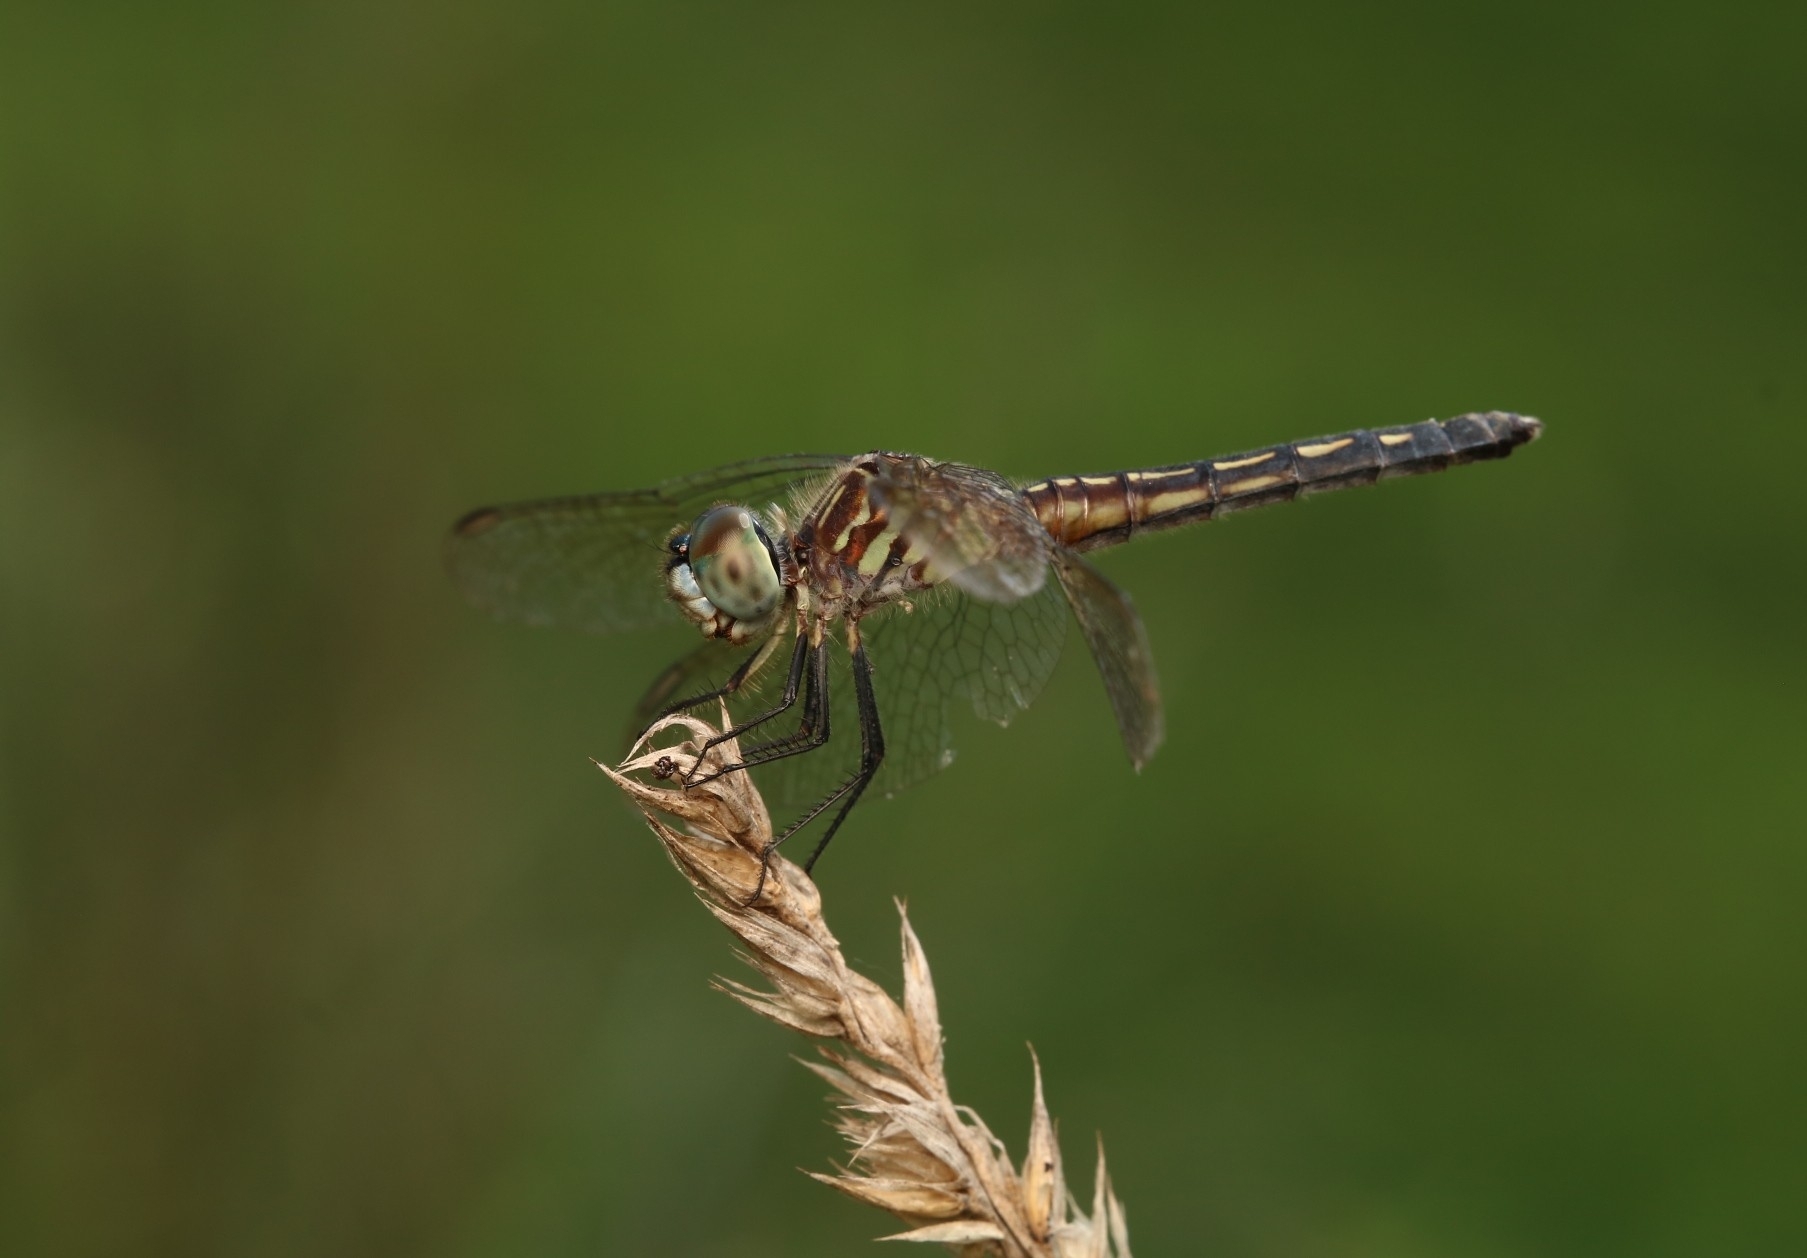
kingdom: Animalia
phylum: Arthropoda
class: Insecta
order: Odonata
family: Libellulidae
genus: Pachydiplax
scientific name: Pachydiplax longipennis
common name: Blue dasher
